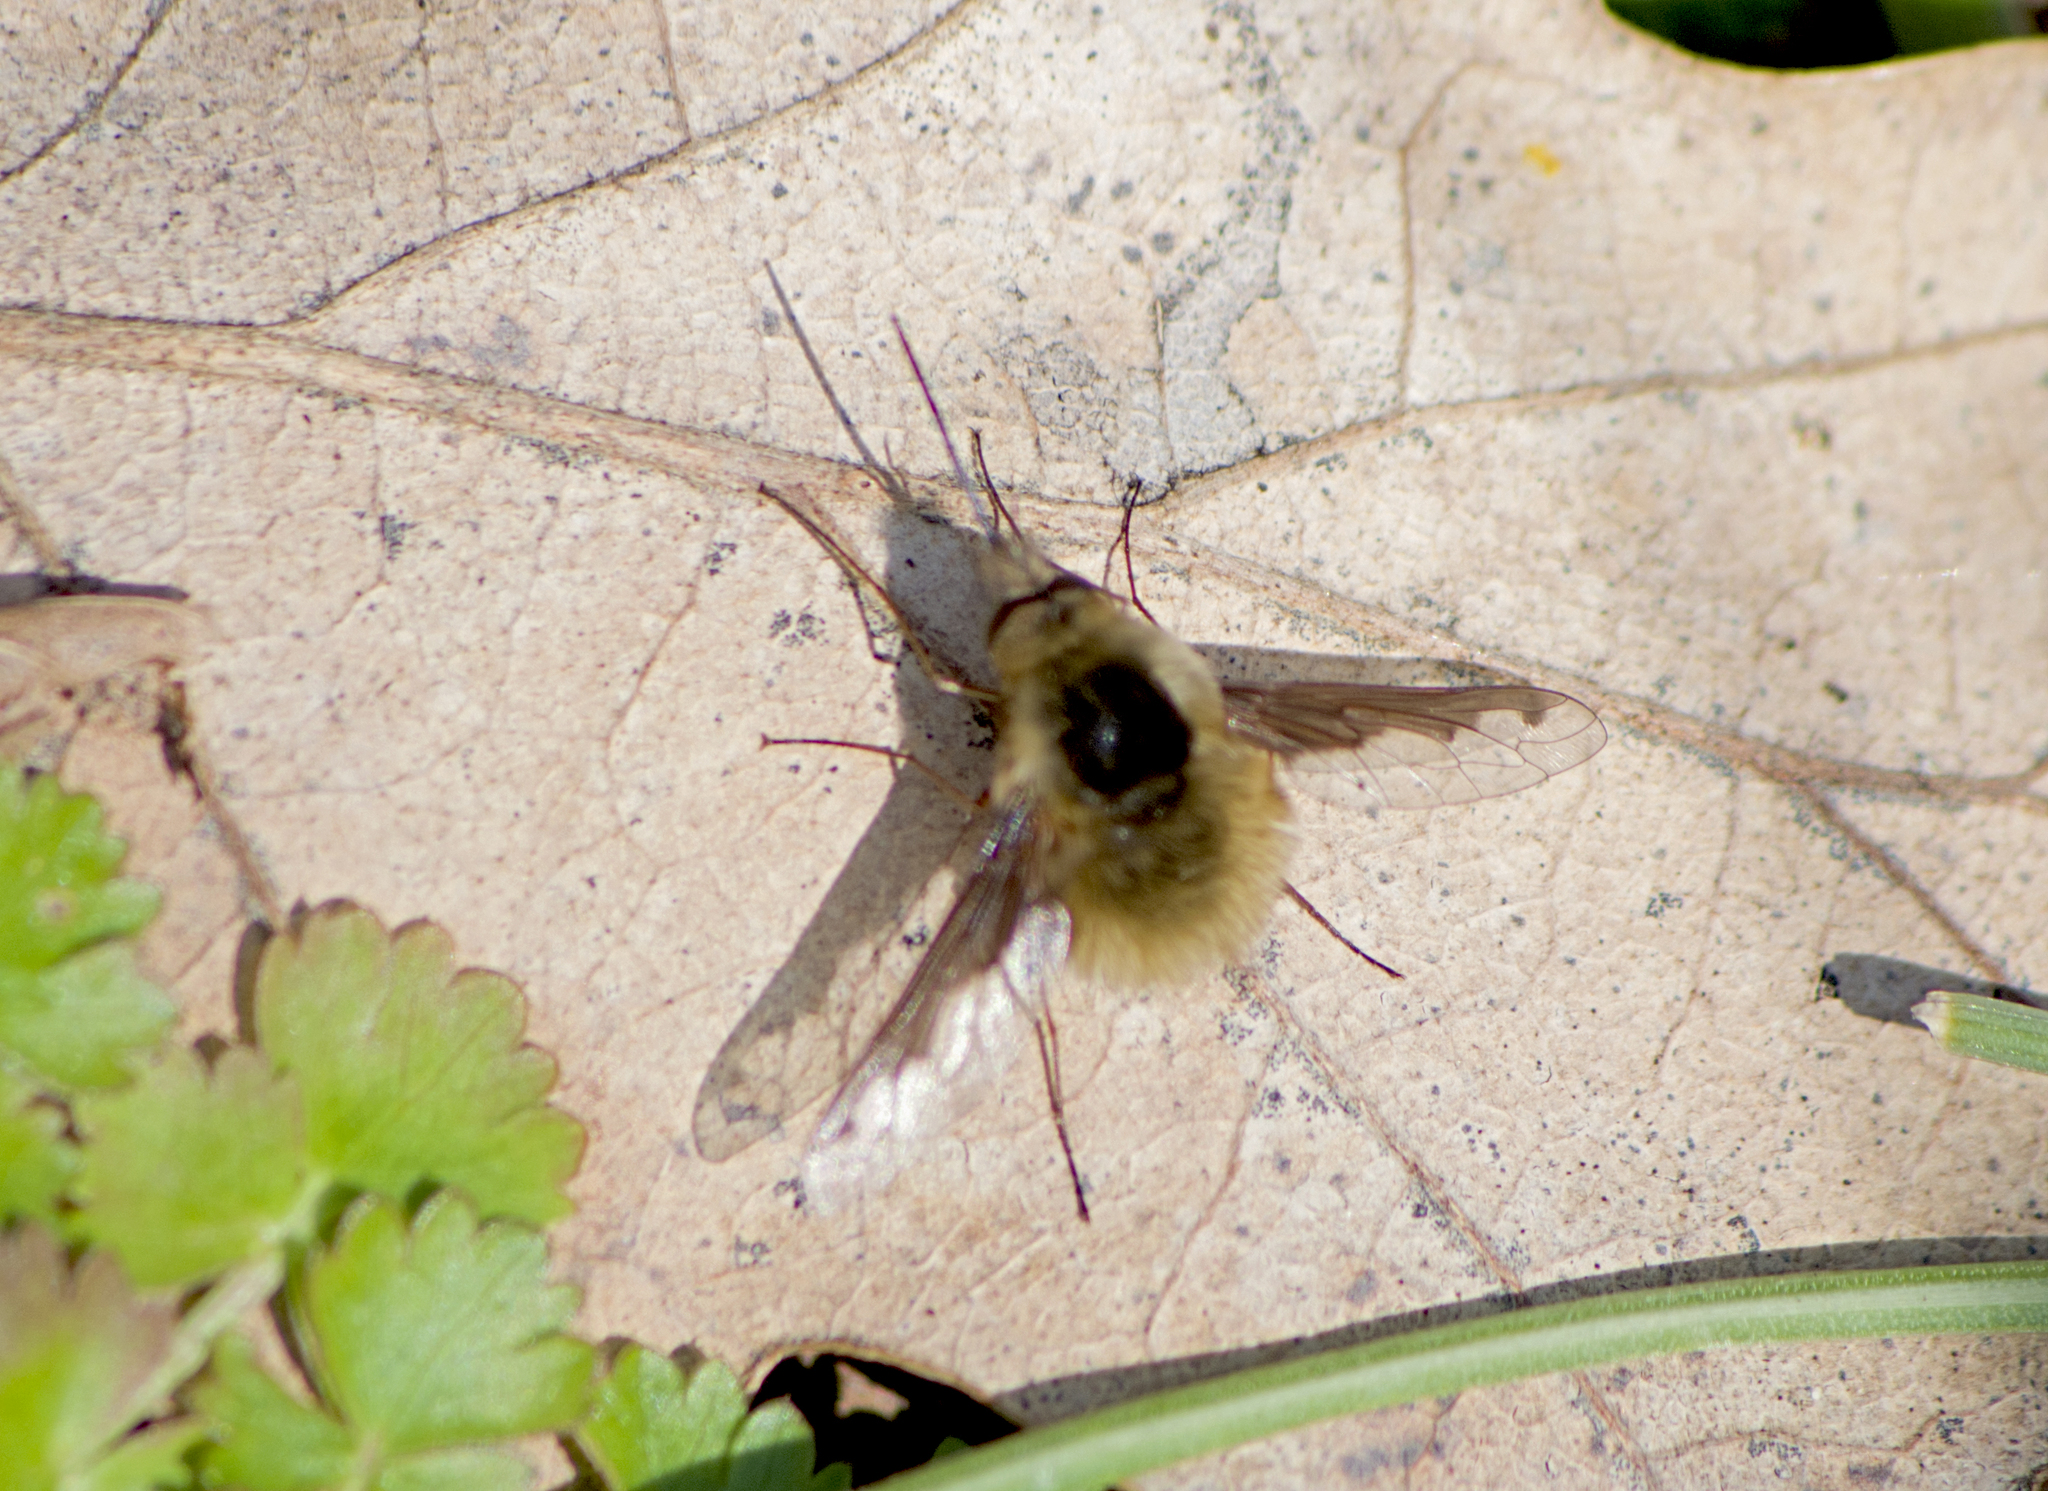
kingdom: Animalia
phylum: Arthropoda
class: Insecta
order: Diptera
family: Bombyliidae
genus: Bombylius
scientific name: Bombylius major
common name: Bee fly
